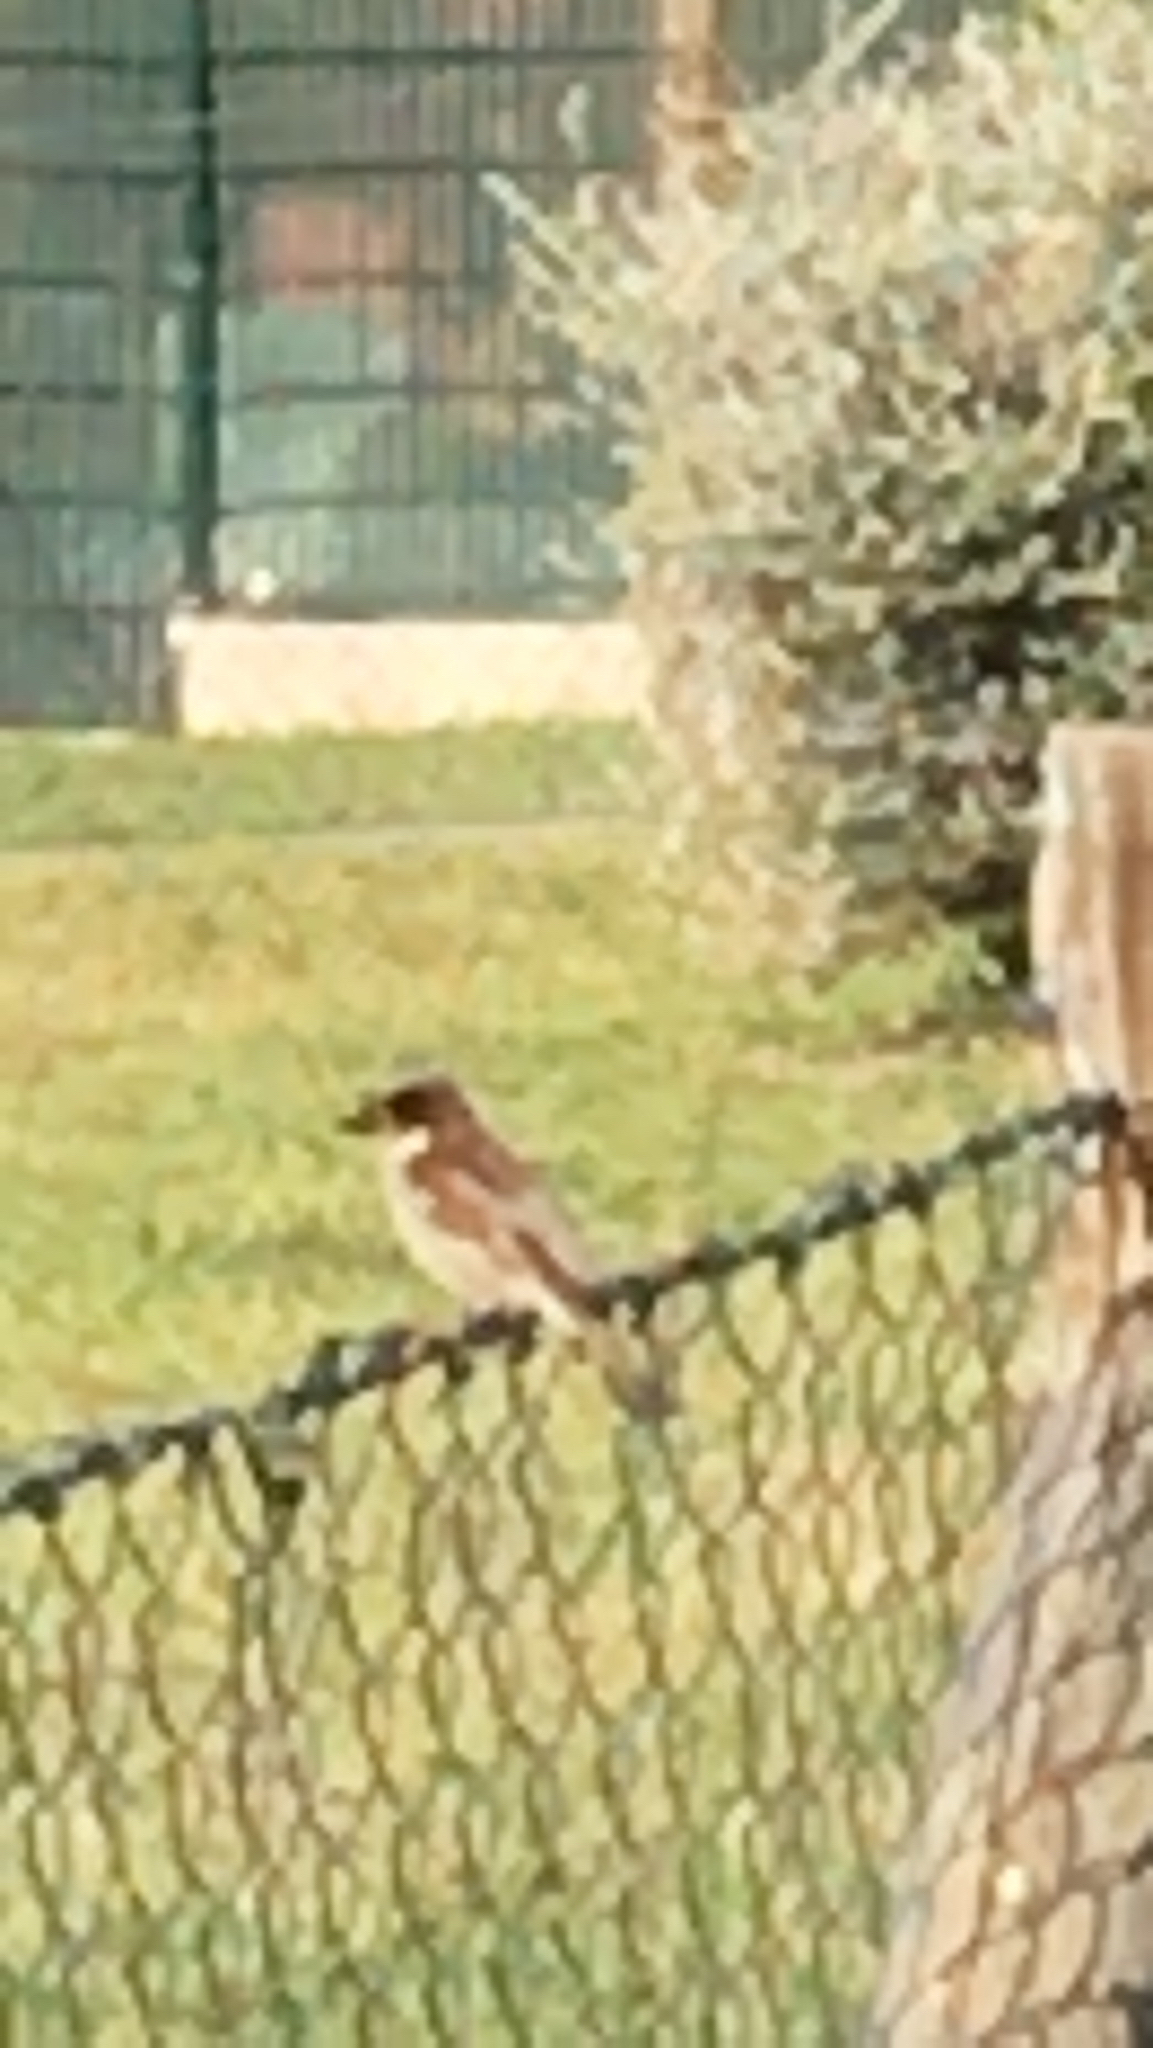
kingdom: Animalia
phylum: Chordata
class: Aves
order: Passeriformes
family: Passeridae
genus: Passer
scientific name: Passer domesticus
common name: House sparrow
